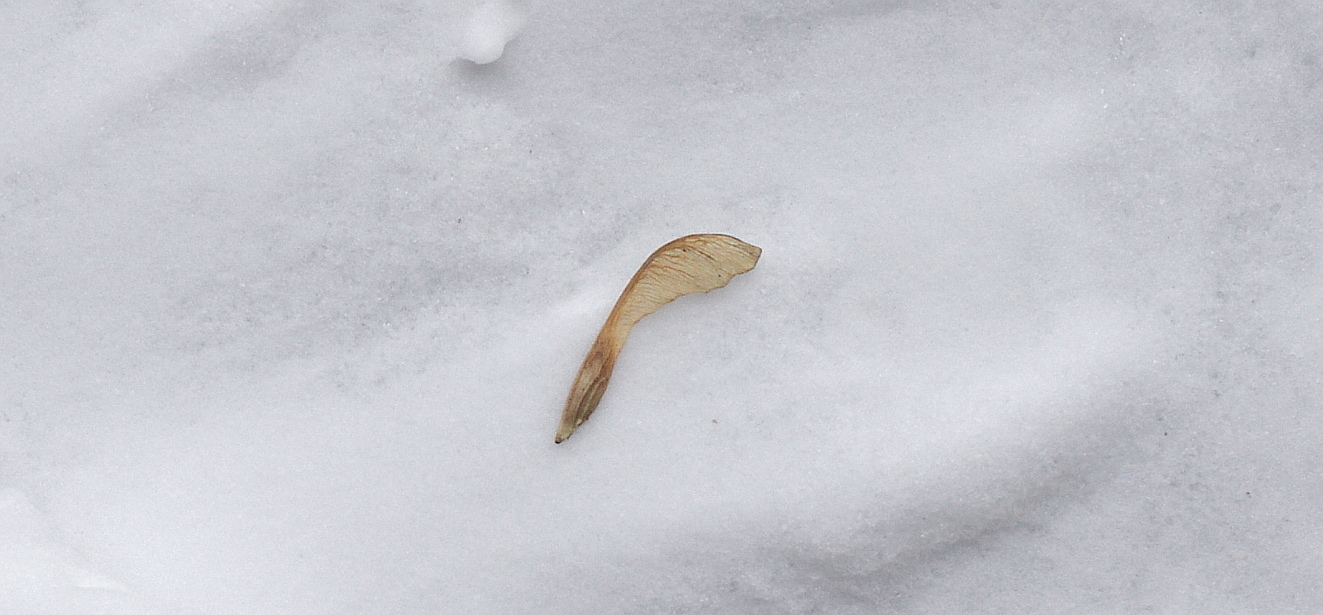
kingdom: Plantae
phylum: Tracheophyta
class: Magnoliopsida
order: Sapindales
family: Sapindaceae
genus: Acer
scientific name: Acer negundo
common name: Ashleaf maple
